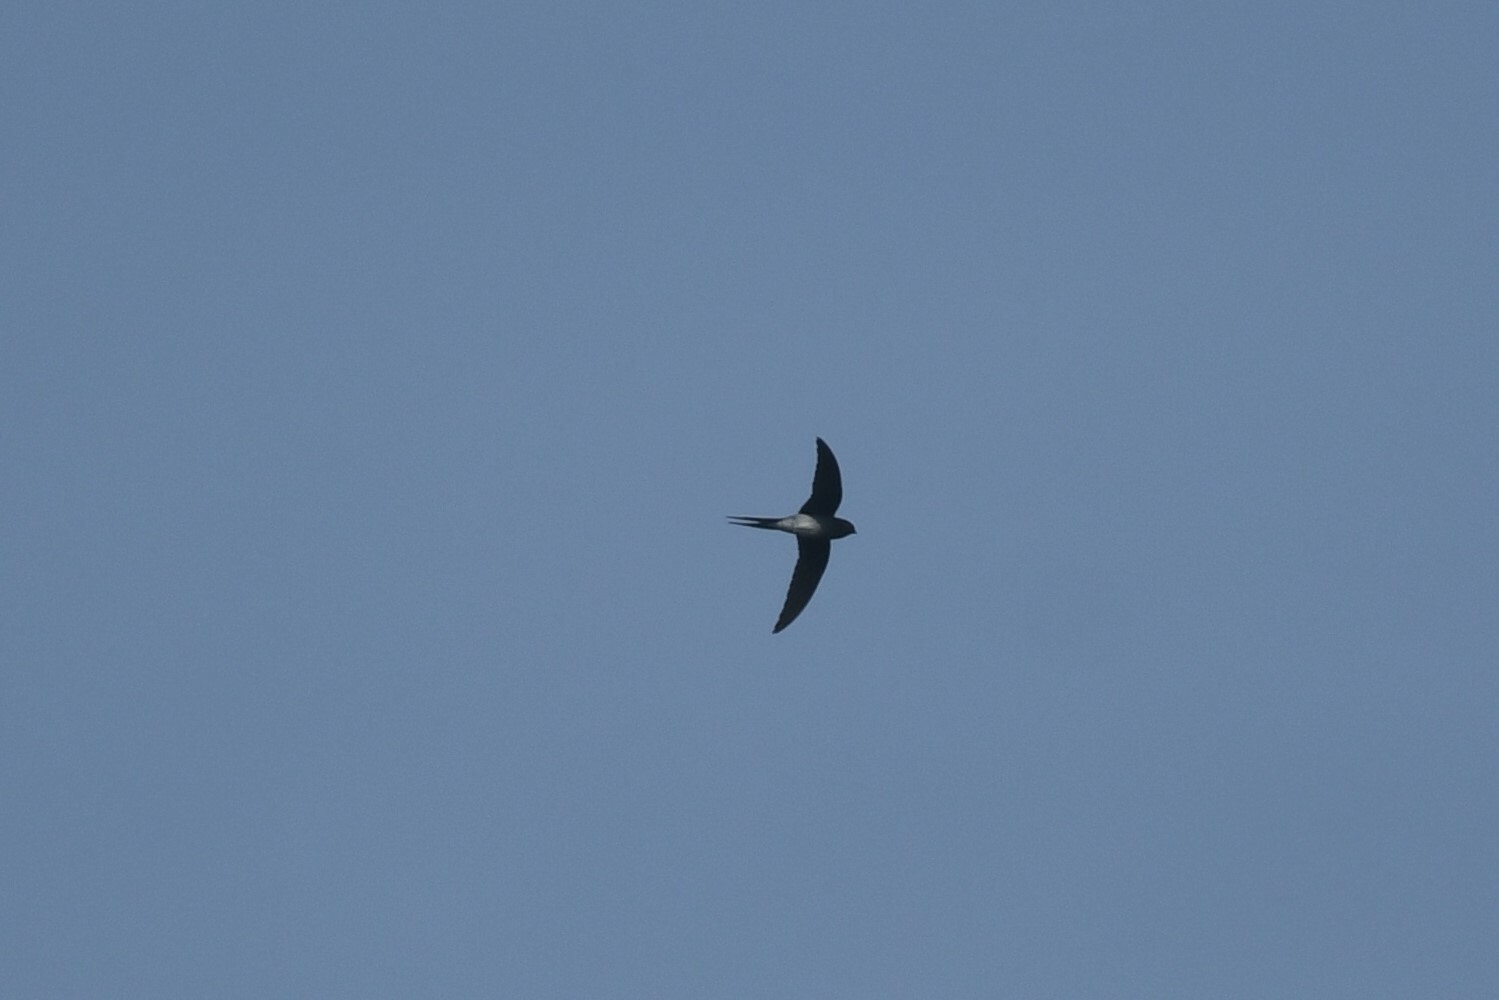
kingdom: Animalia
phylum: Chordata
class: Aves
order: Apodiformes
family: Hemiprocnidae
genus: Hemiprocne
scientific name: Hemiprocne longipennis
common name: Grey-rumped treeswift
